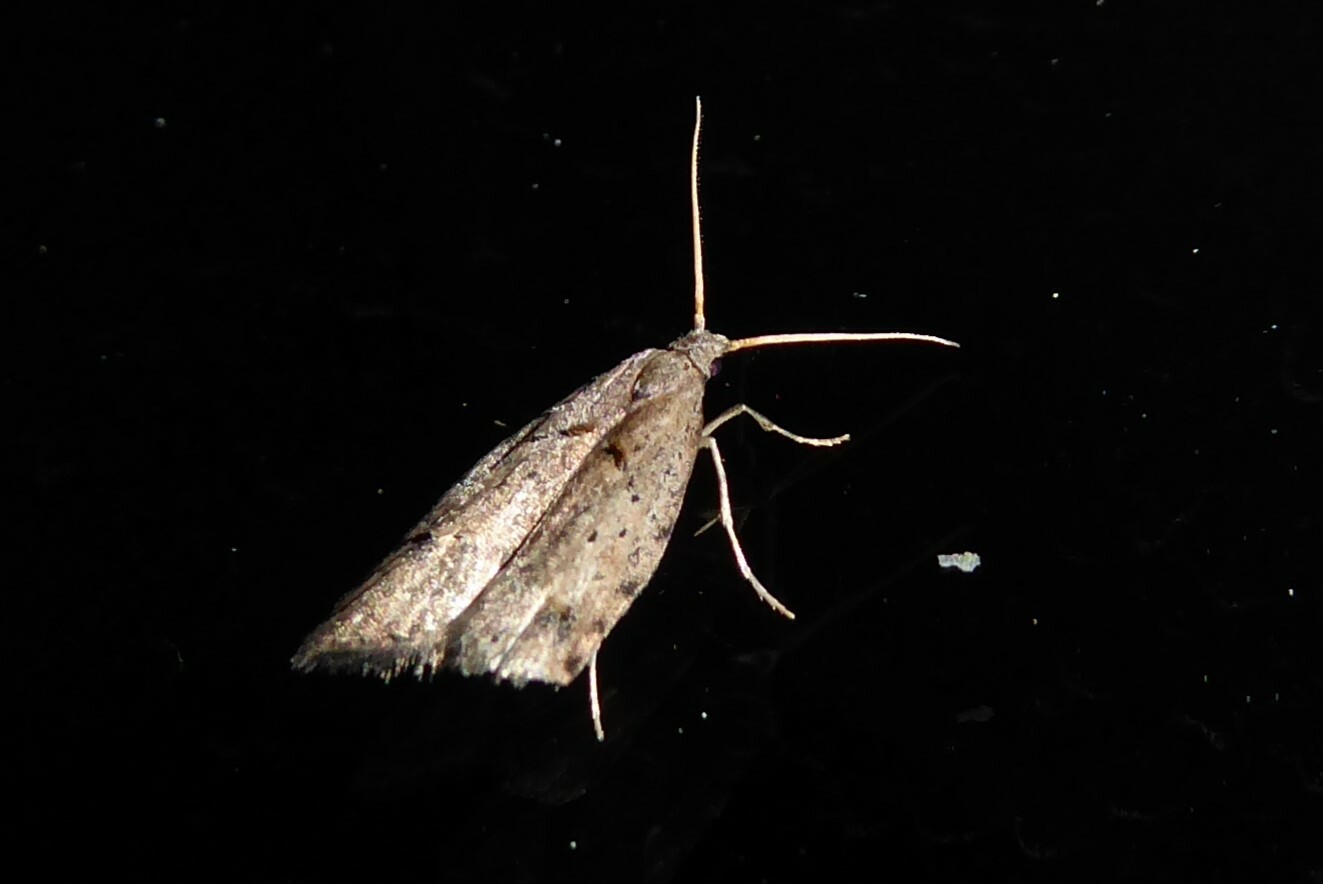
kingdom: Animalia
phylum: Arthropoda
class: Insecta
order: Lepidoptera
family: Carposinidae
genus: Carposina
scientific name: Carposina rubophaga
